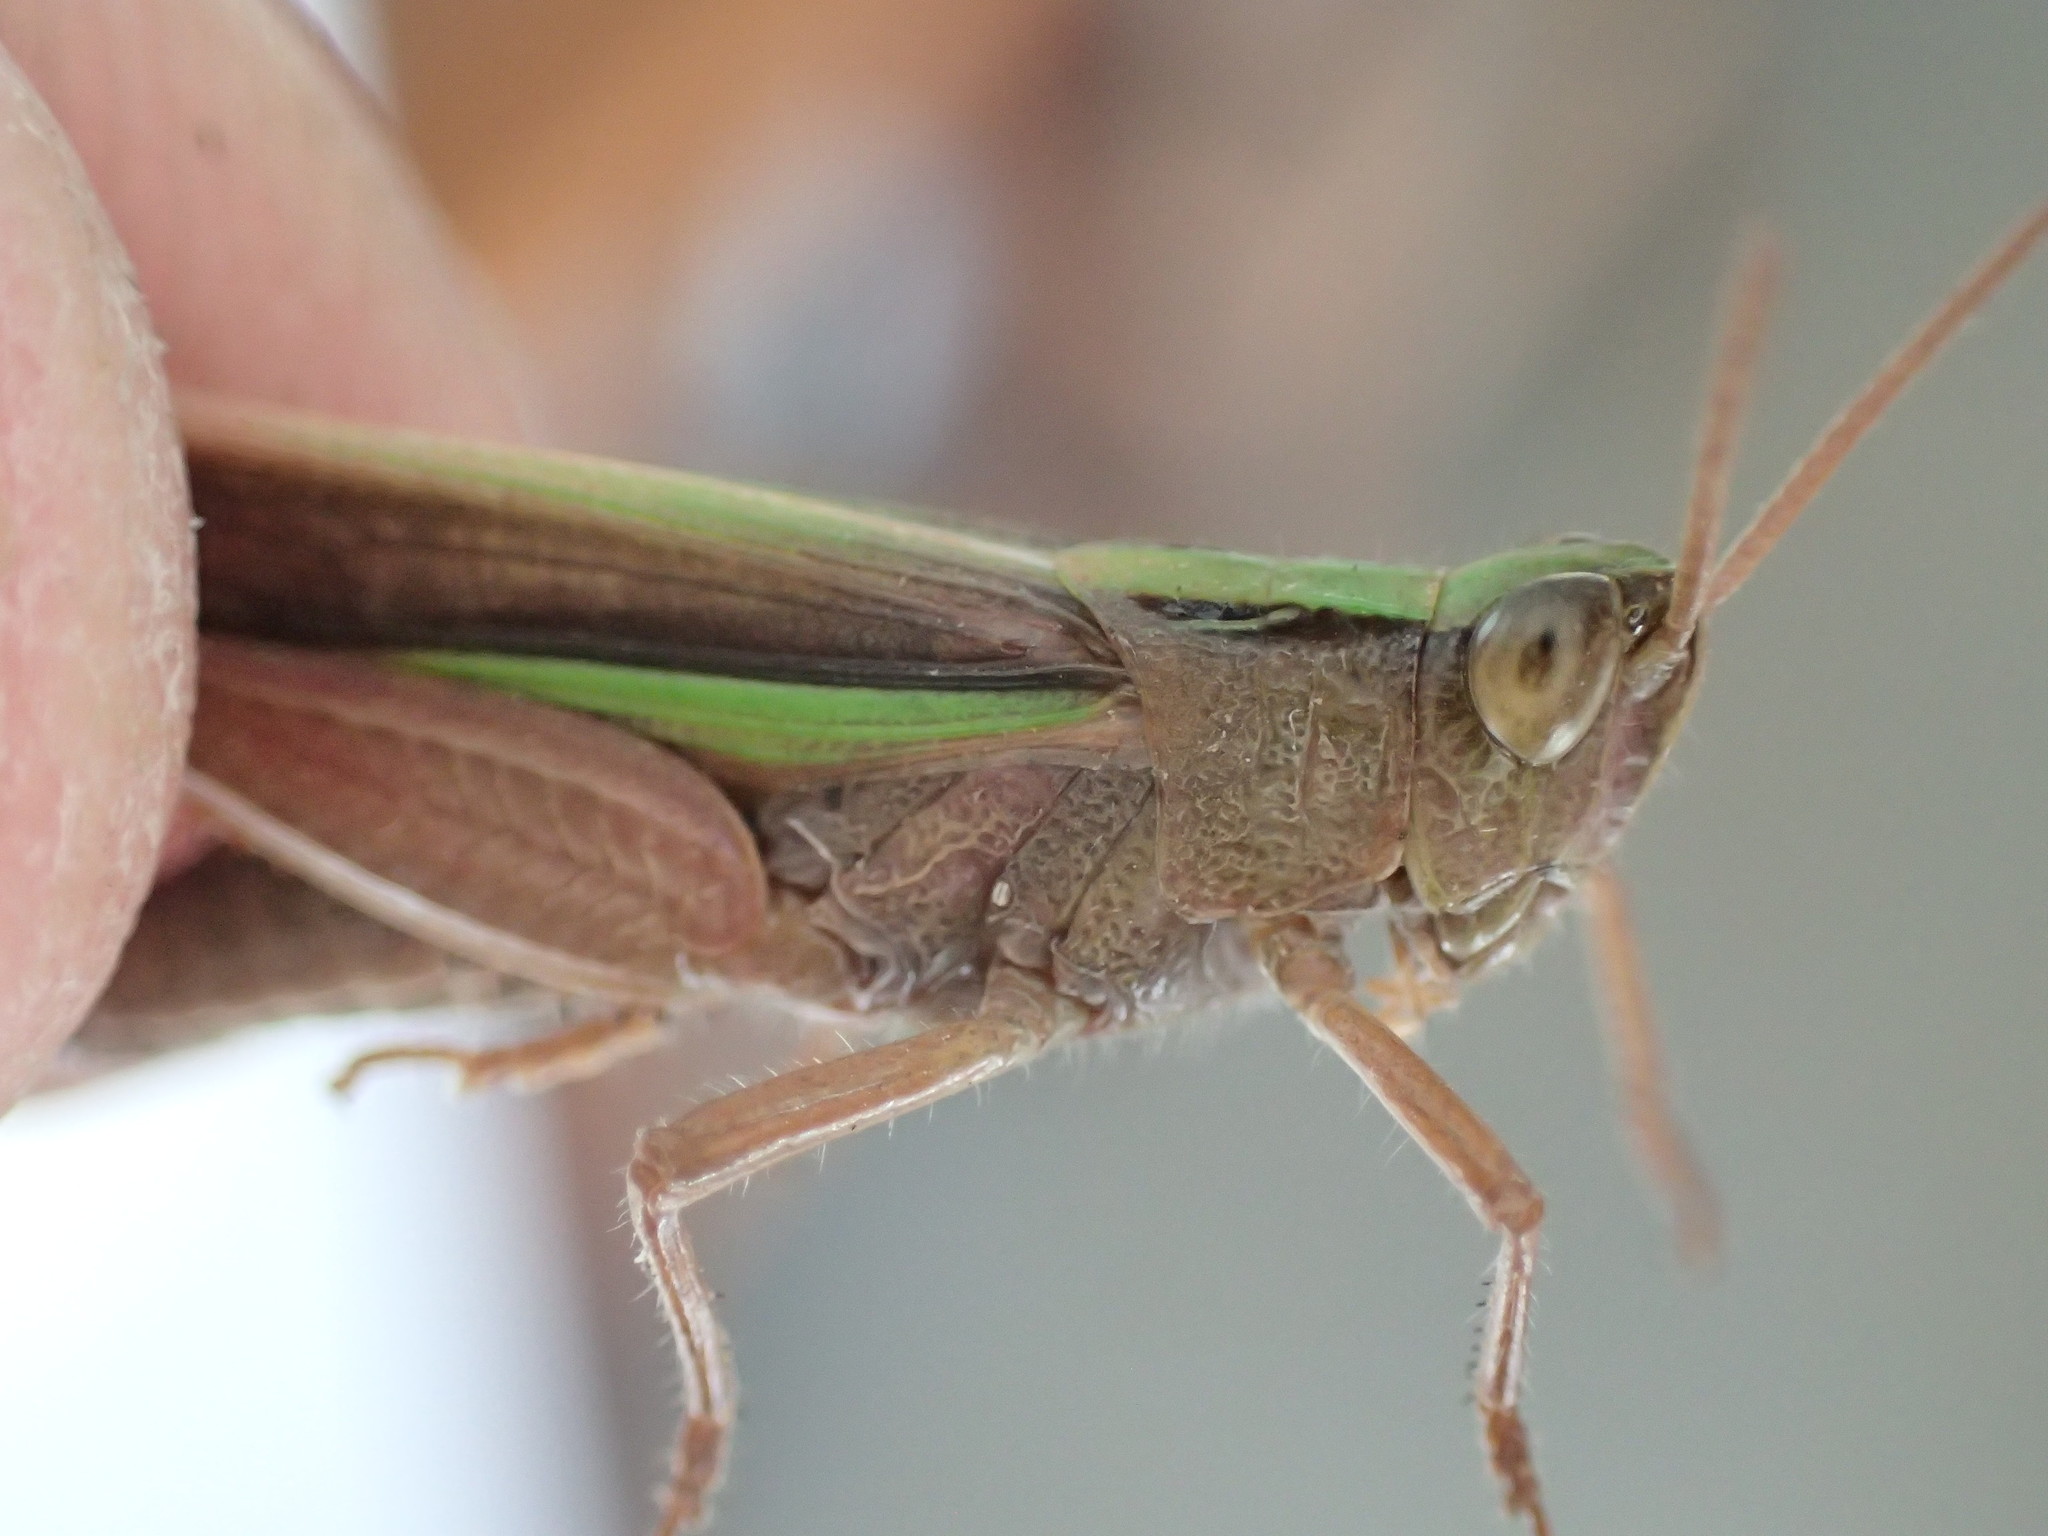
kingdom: Animalia
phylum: Arthropoda
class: Insecta
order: Orthoptera
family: Acrididae
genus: Schizobothrus
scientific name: Schizobothrus flavovittatus
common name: Disappearing grasshopper
